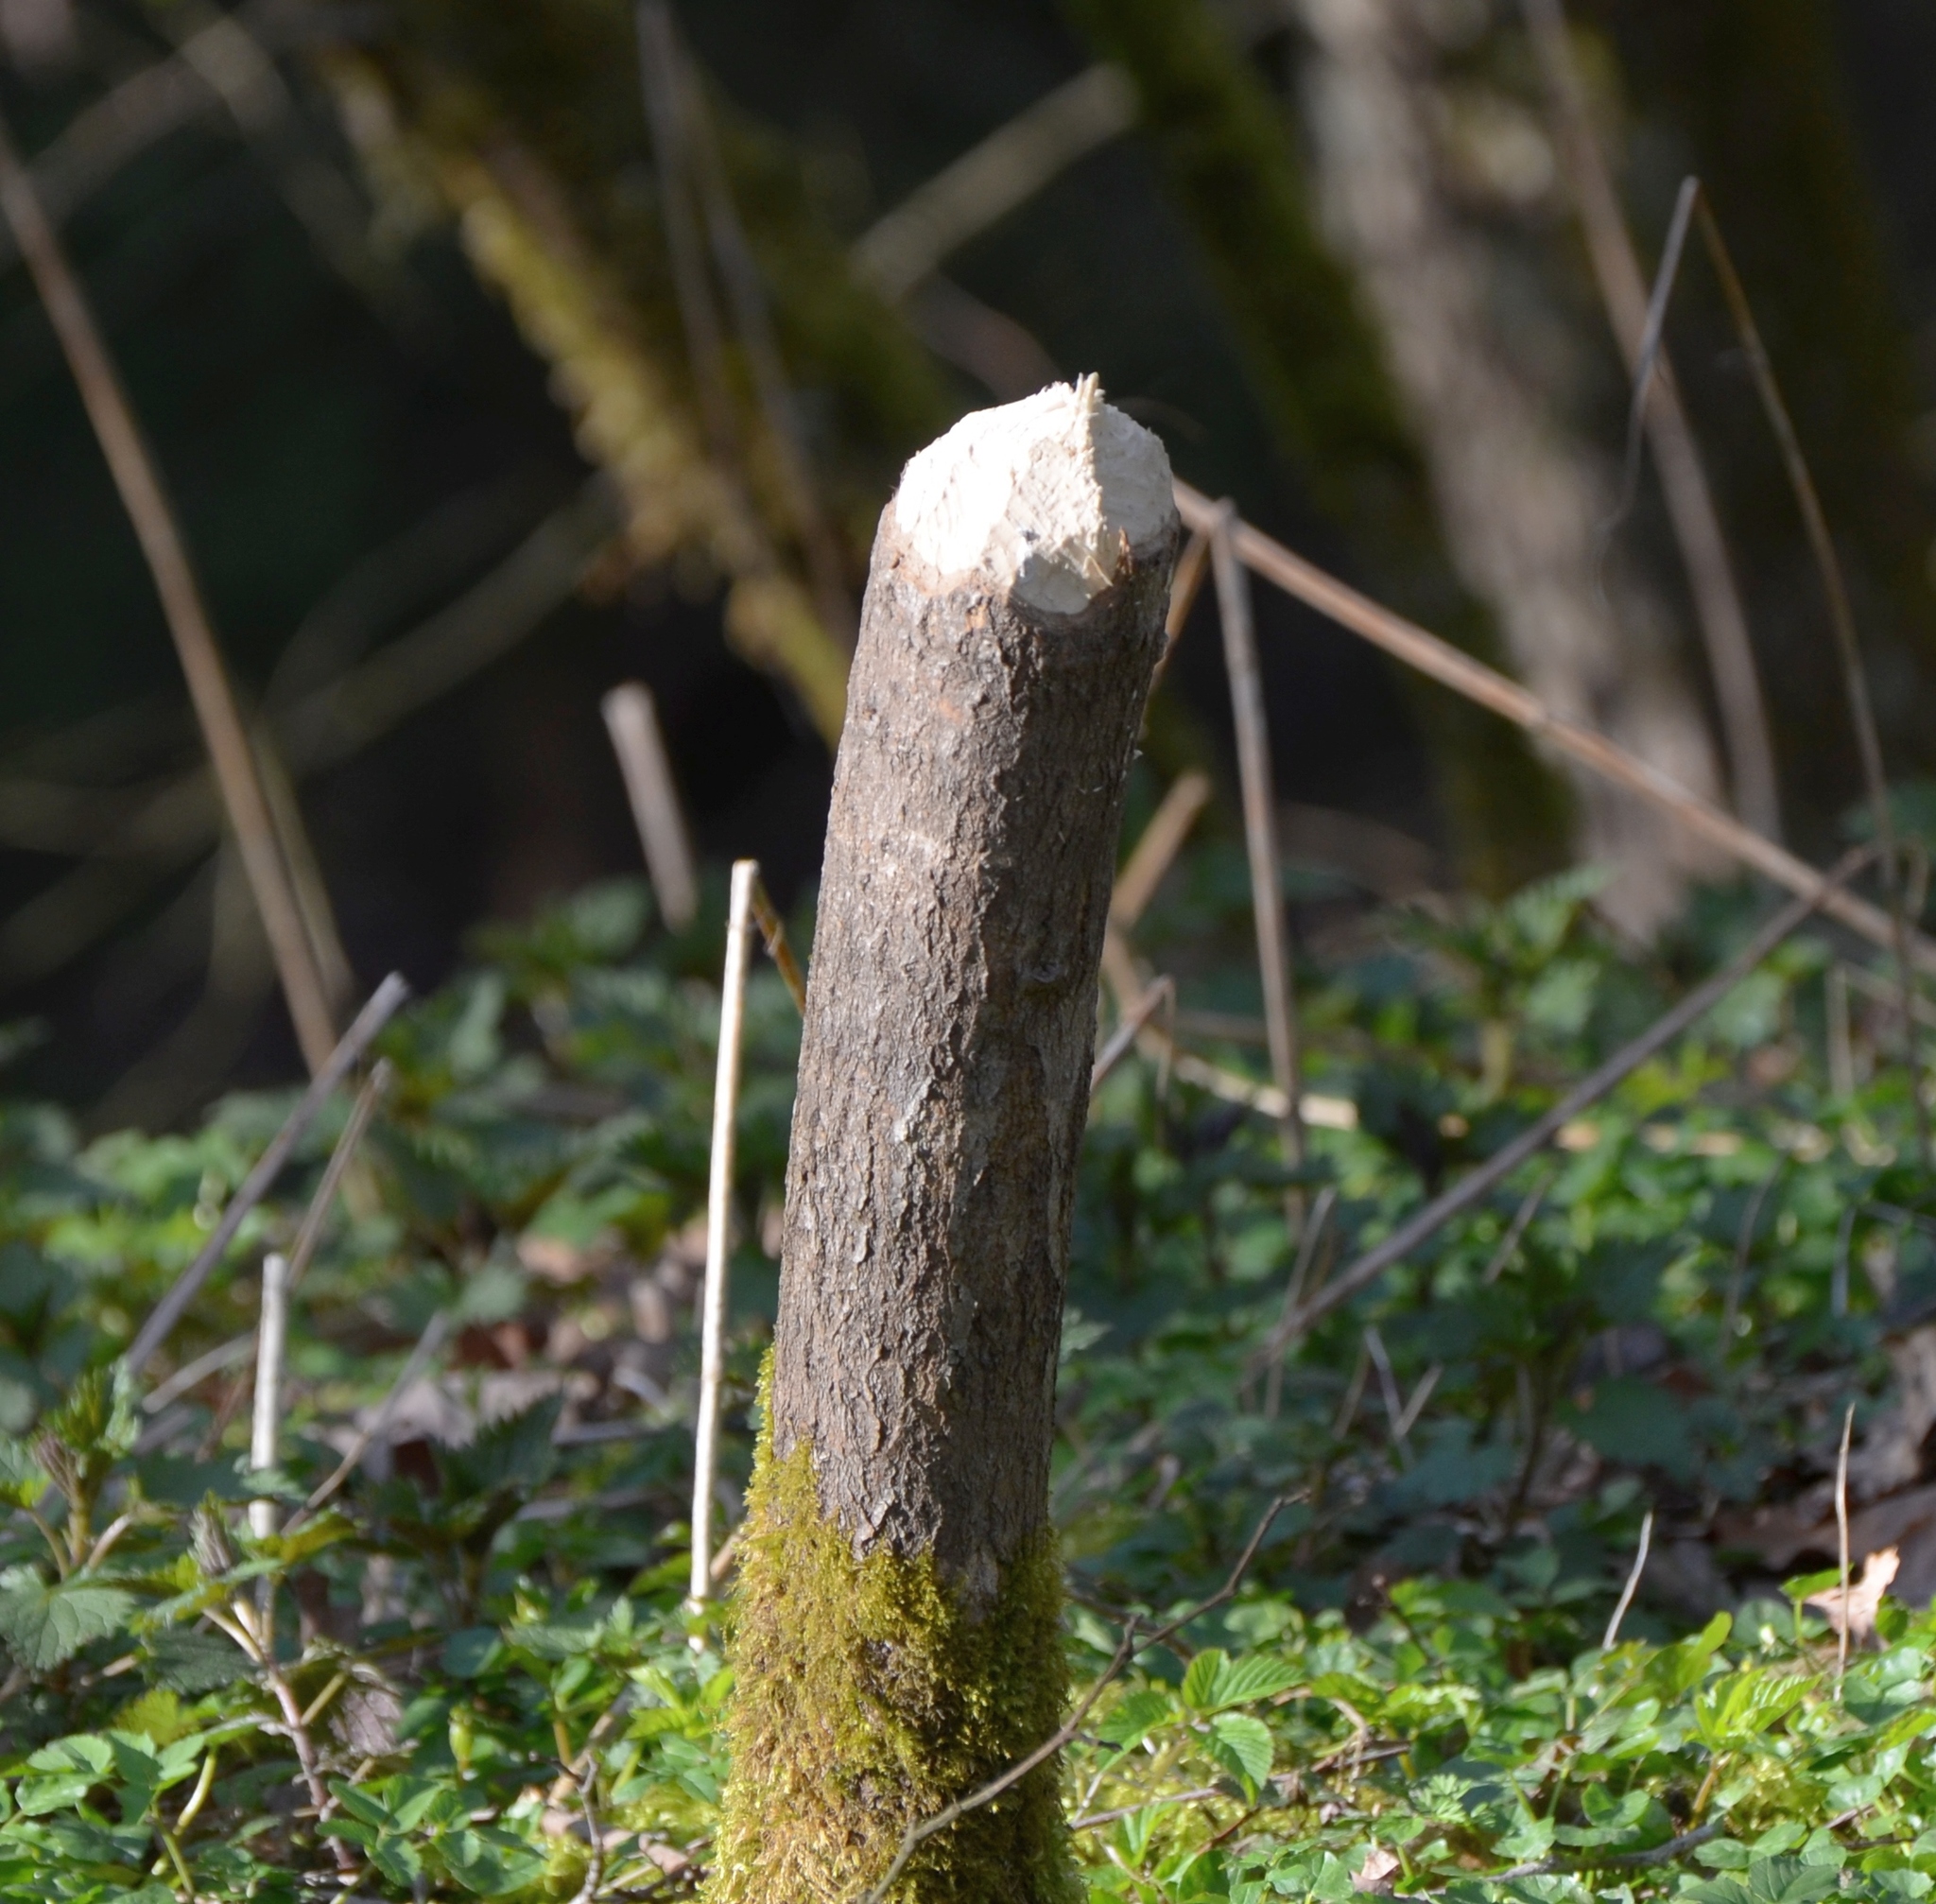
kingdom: Animalia
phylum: Chordata
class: Mammalia
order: Rodentia
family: Castoridae
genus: Castor
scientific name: Castor fiber
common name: Eurasian beaver
